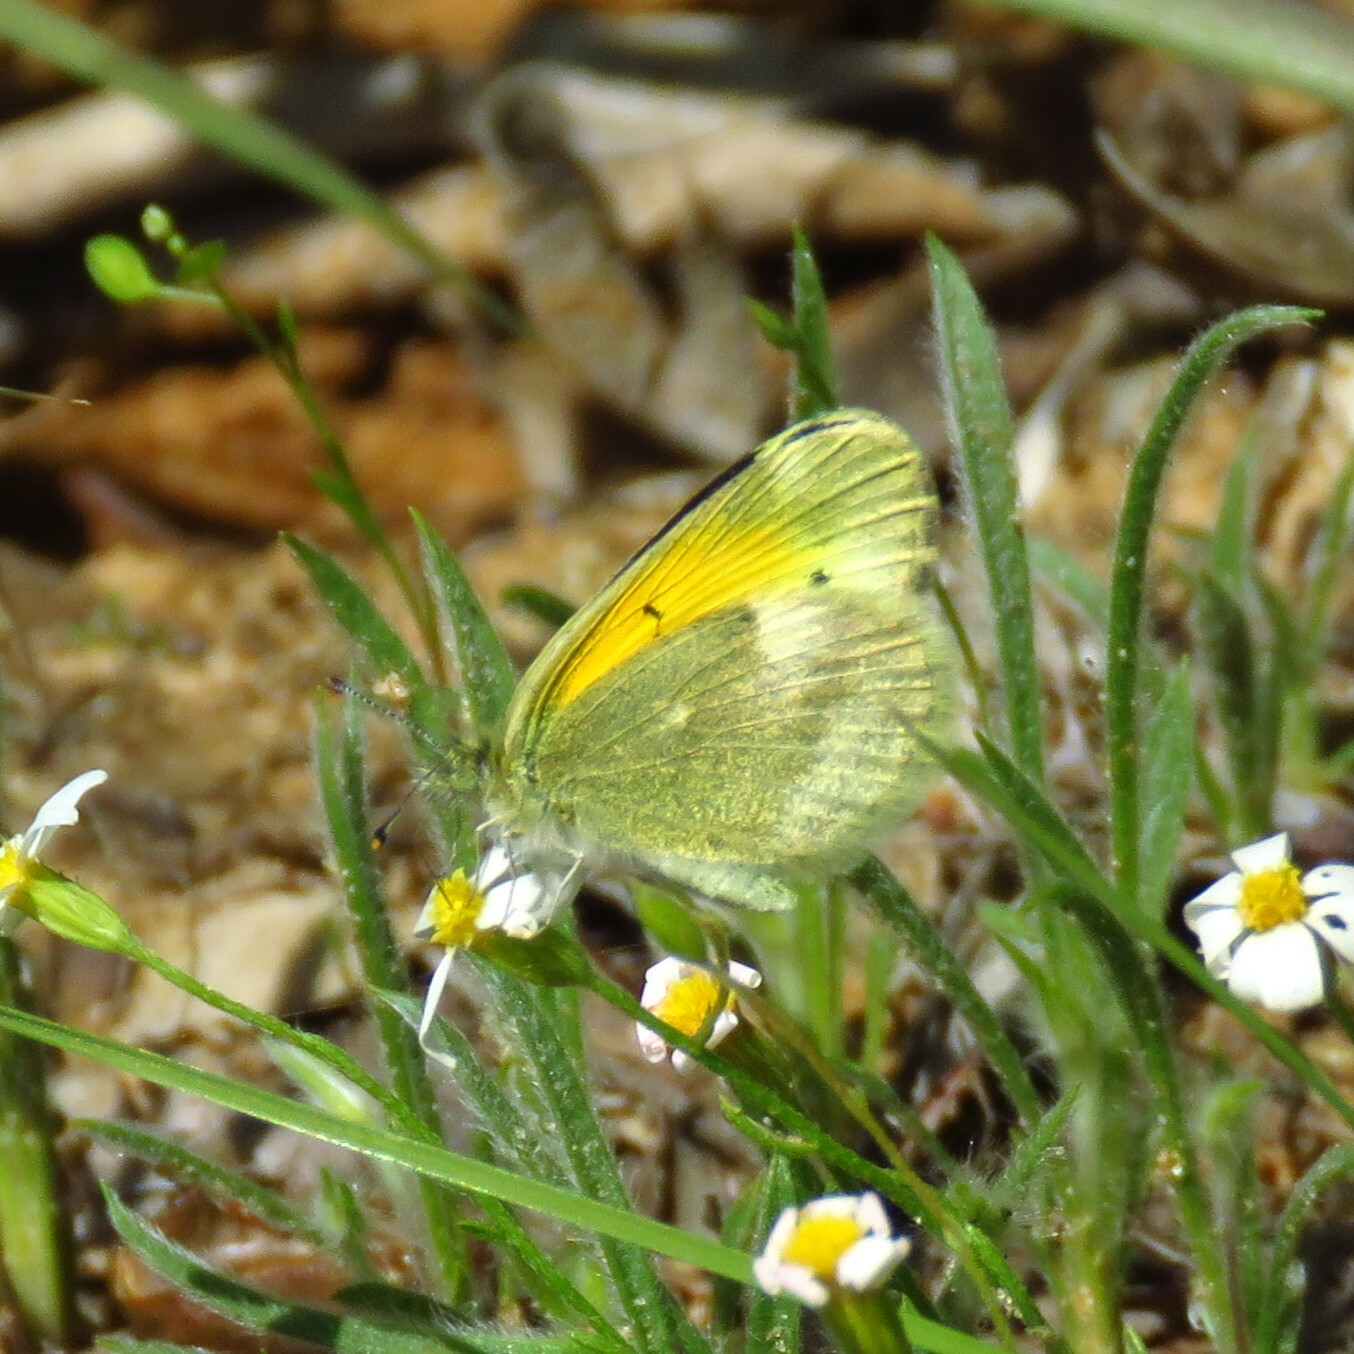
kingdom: Animalia
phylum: Arthropoda
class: Insecta
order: Lepidoptera
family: Pieridae
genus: Nathalis
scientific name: Nathalis iole
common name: Dainty sulphur
